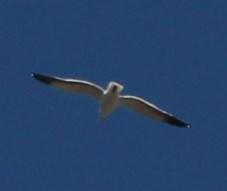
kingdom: Animalia
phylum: Chordata
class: Aves
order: Charadriiformes
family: Laridae
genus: Larus
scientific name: Larus dominicanus
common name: Kelp gull
